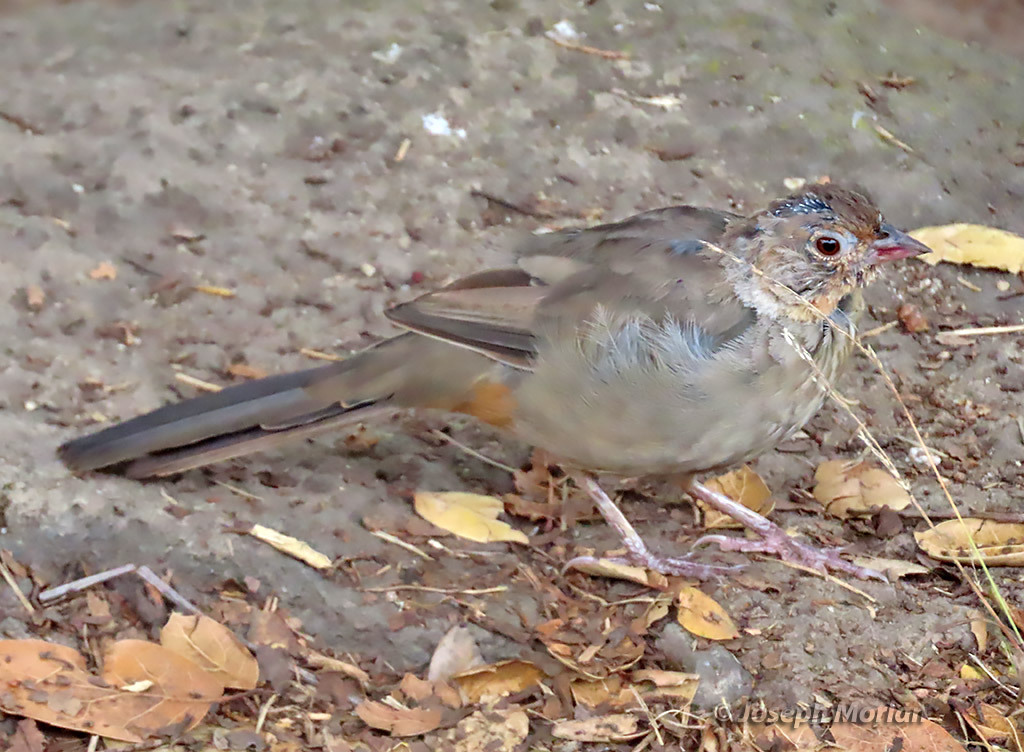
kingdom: Animalia
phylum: Chordata
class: Aves
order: Passeriformes
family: Passerellidae
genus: Melozone
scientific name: Melozone crissalis
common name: California towhee
